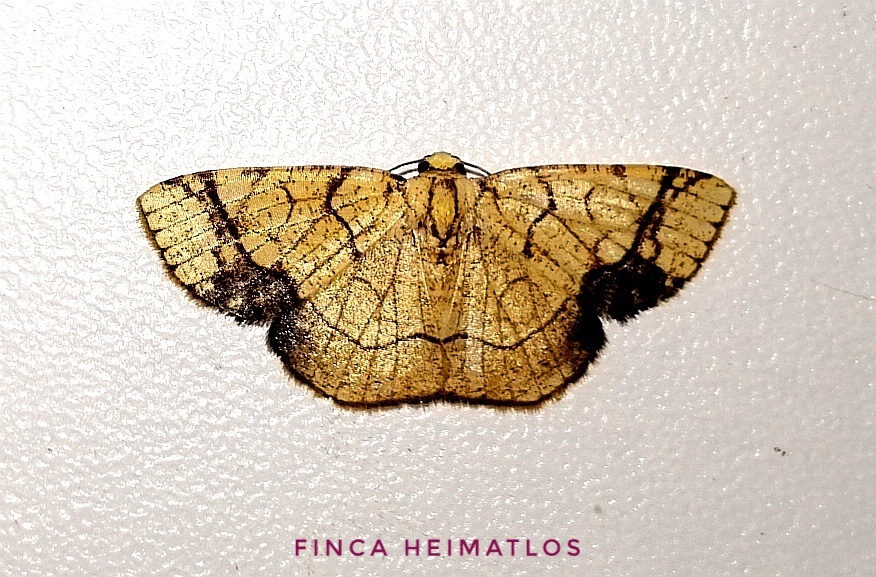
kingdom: Animalia
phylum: Arthropoda
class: Insecta
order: Lepidoptera
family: Geometridae
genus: Nematocampa
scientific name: Nematocampa straminea
